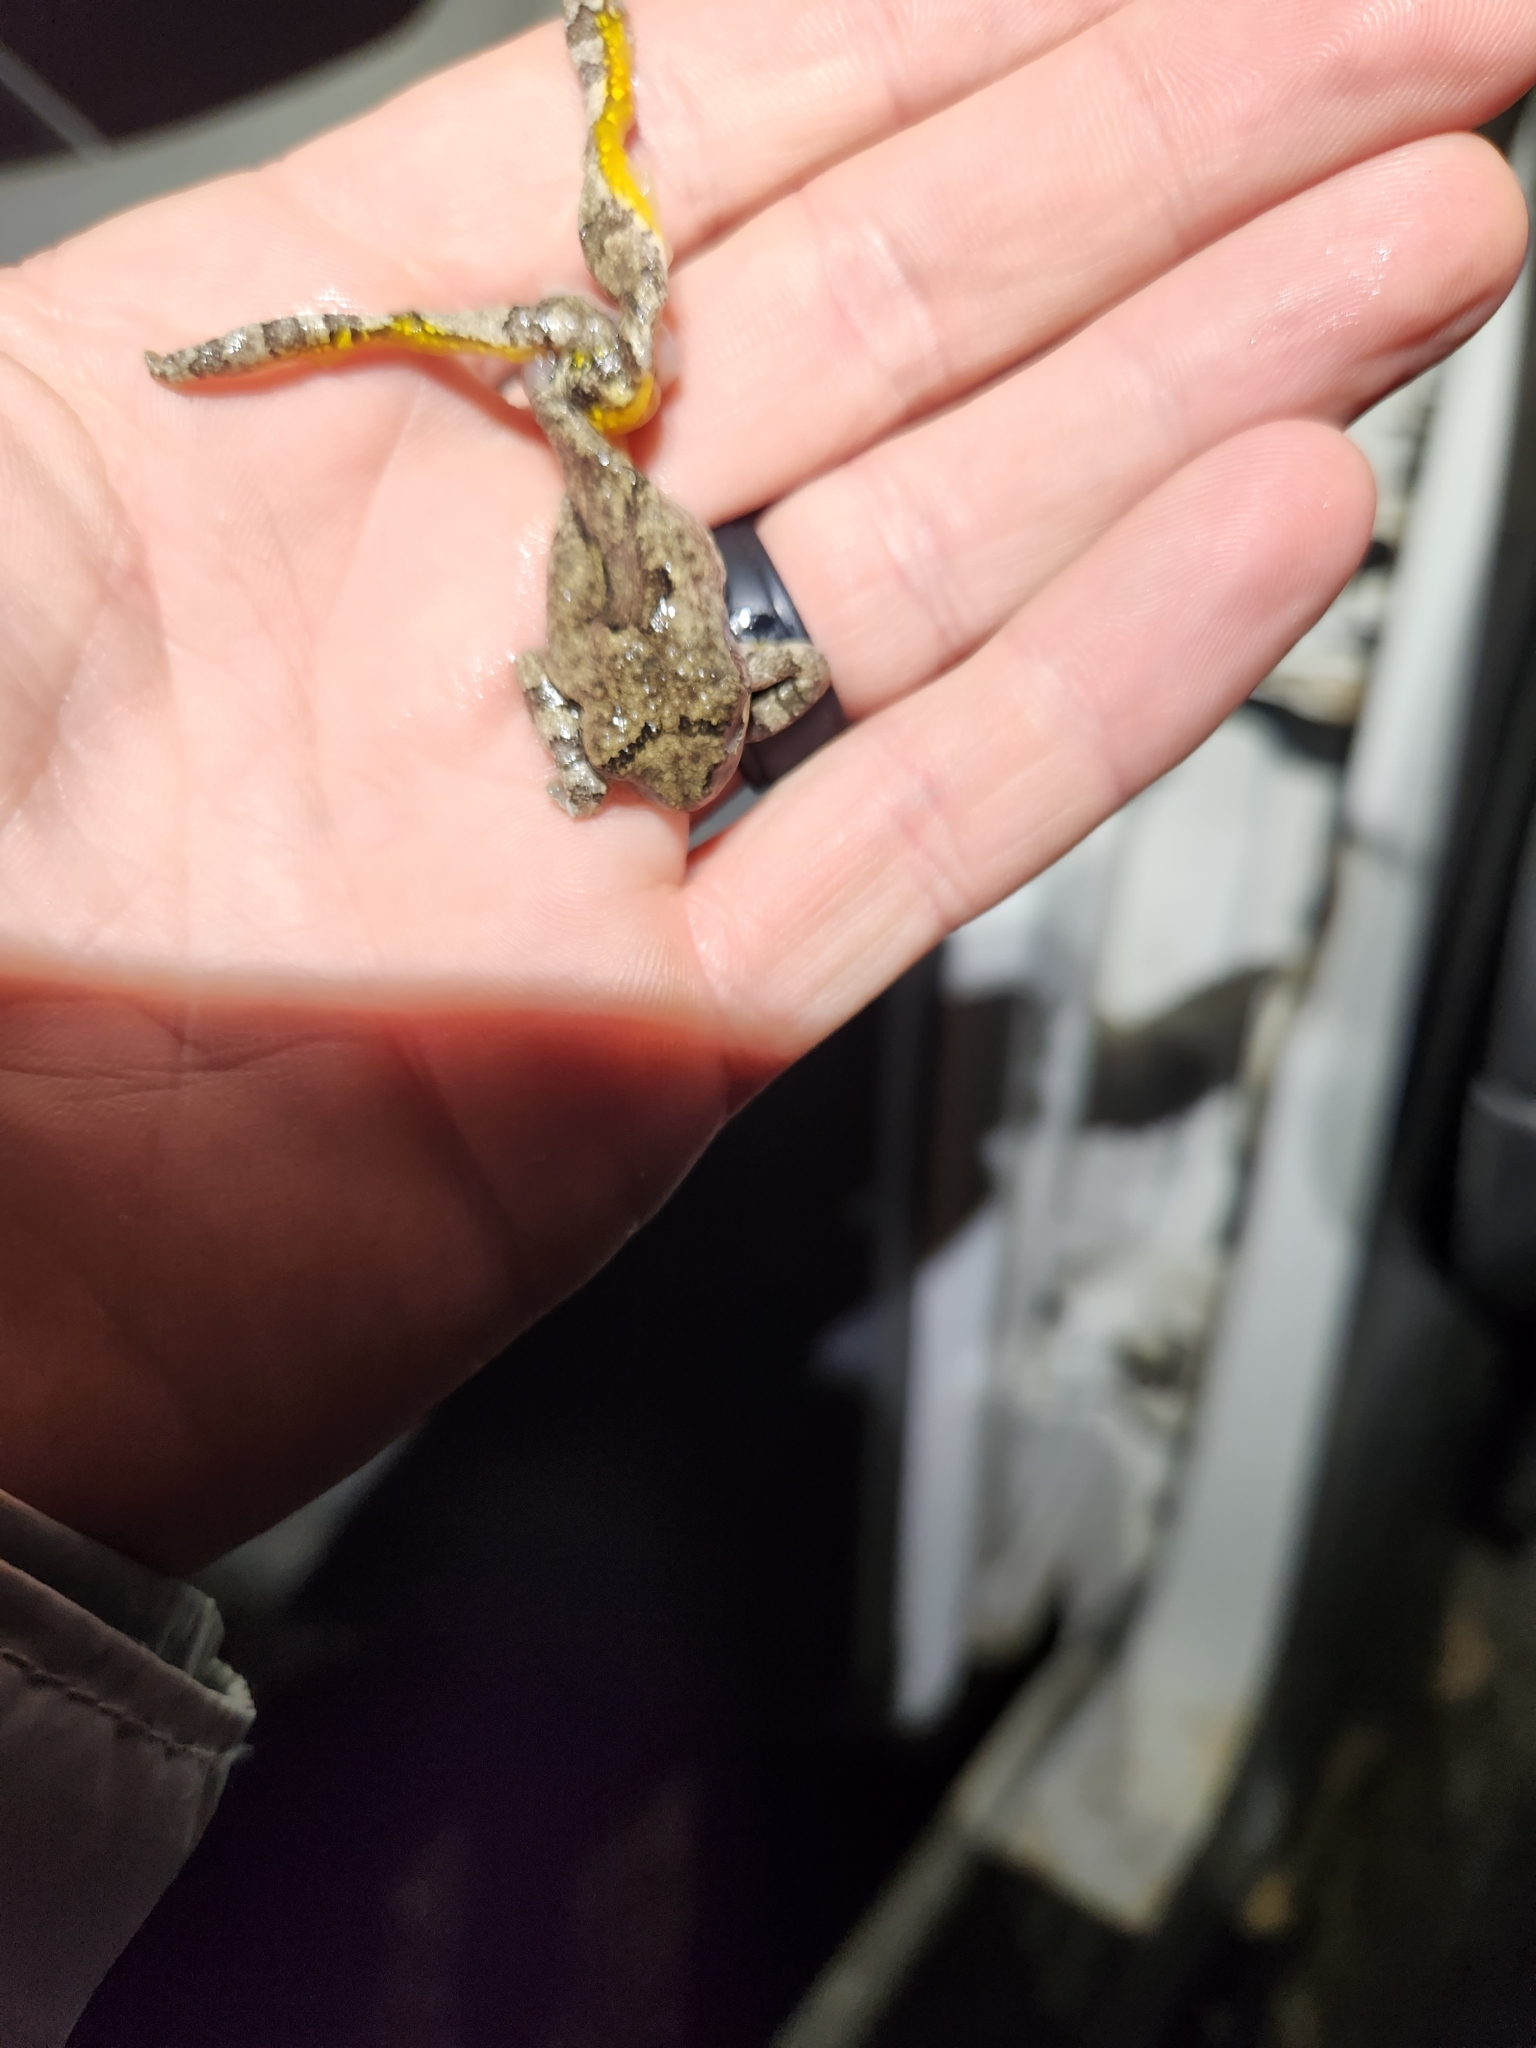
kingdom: Animalia
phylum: Chordata
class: Amphibia
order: Anura
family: Hylidae
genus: Dryophytes
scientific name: Dryophytes chrysoscelis
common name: Cope's gray treefrog
